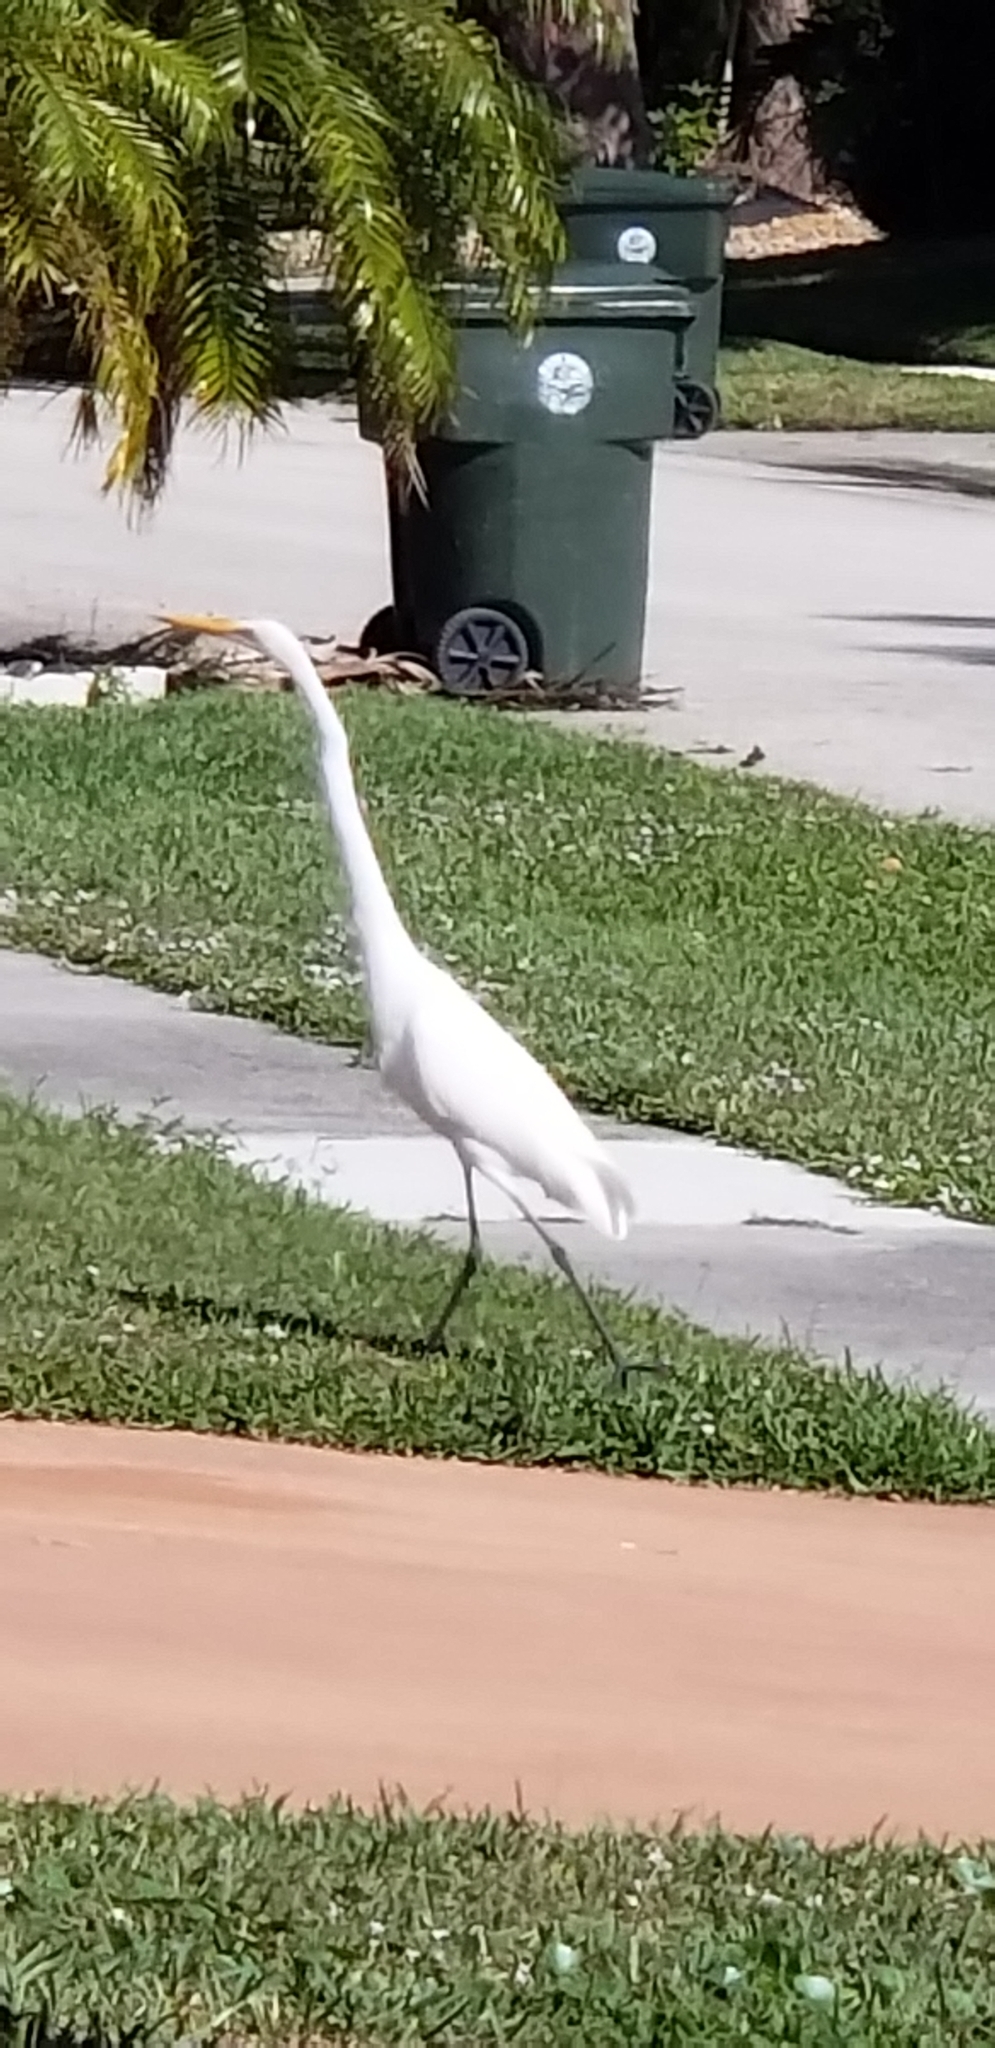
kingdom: Animalia
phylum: Chordata
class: Aves
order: Pelecaniformes
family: Ardeidae
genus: Ardea
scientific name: Ardea alba
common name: Great egret
